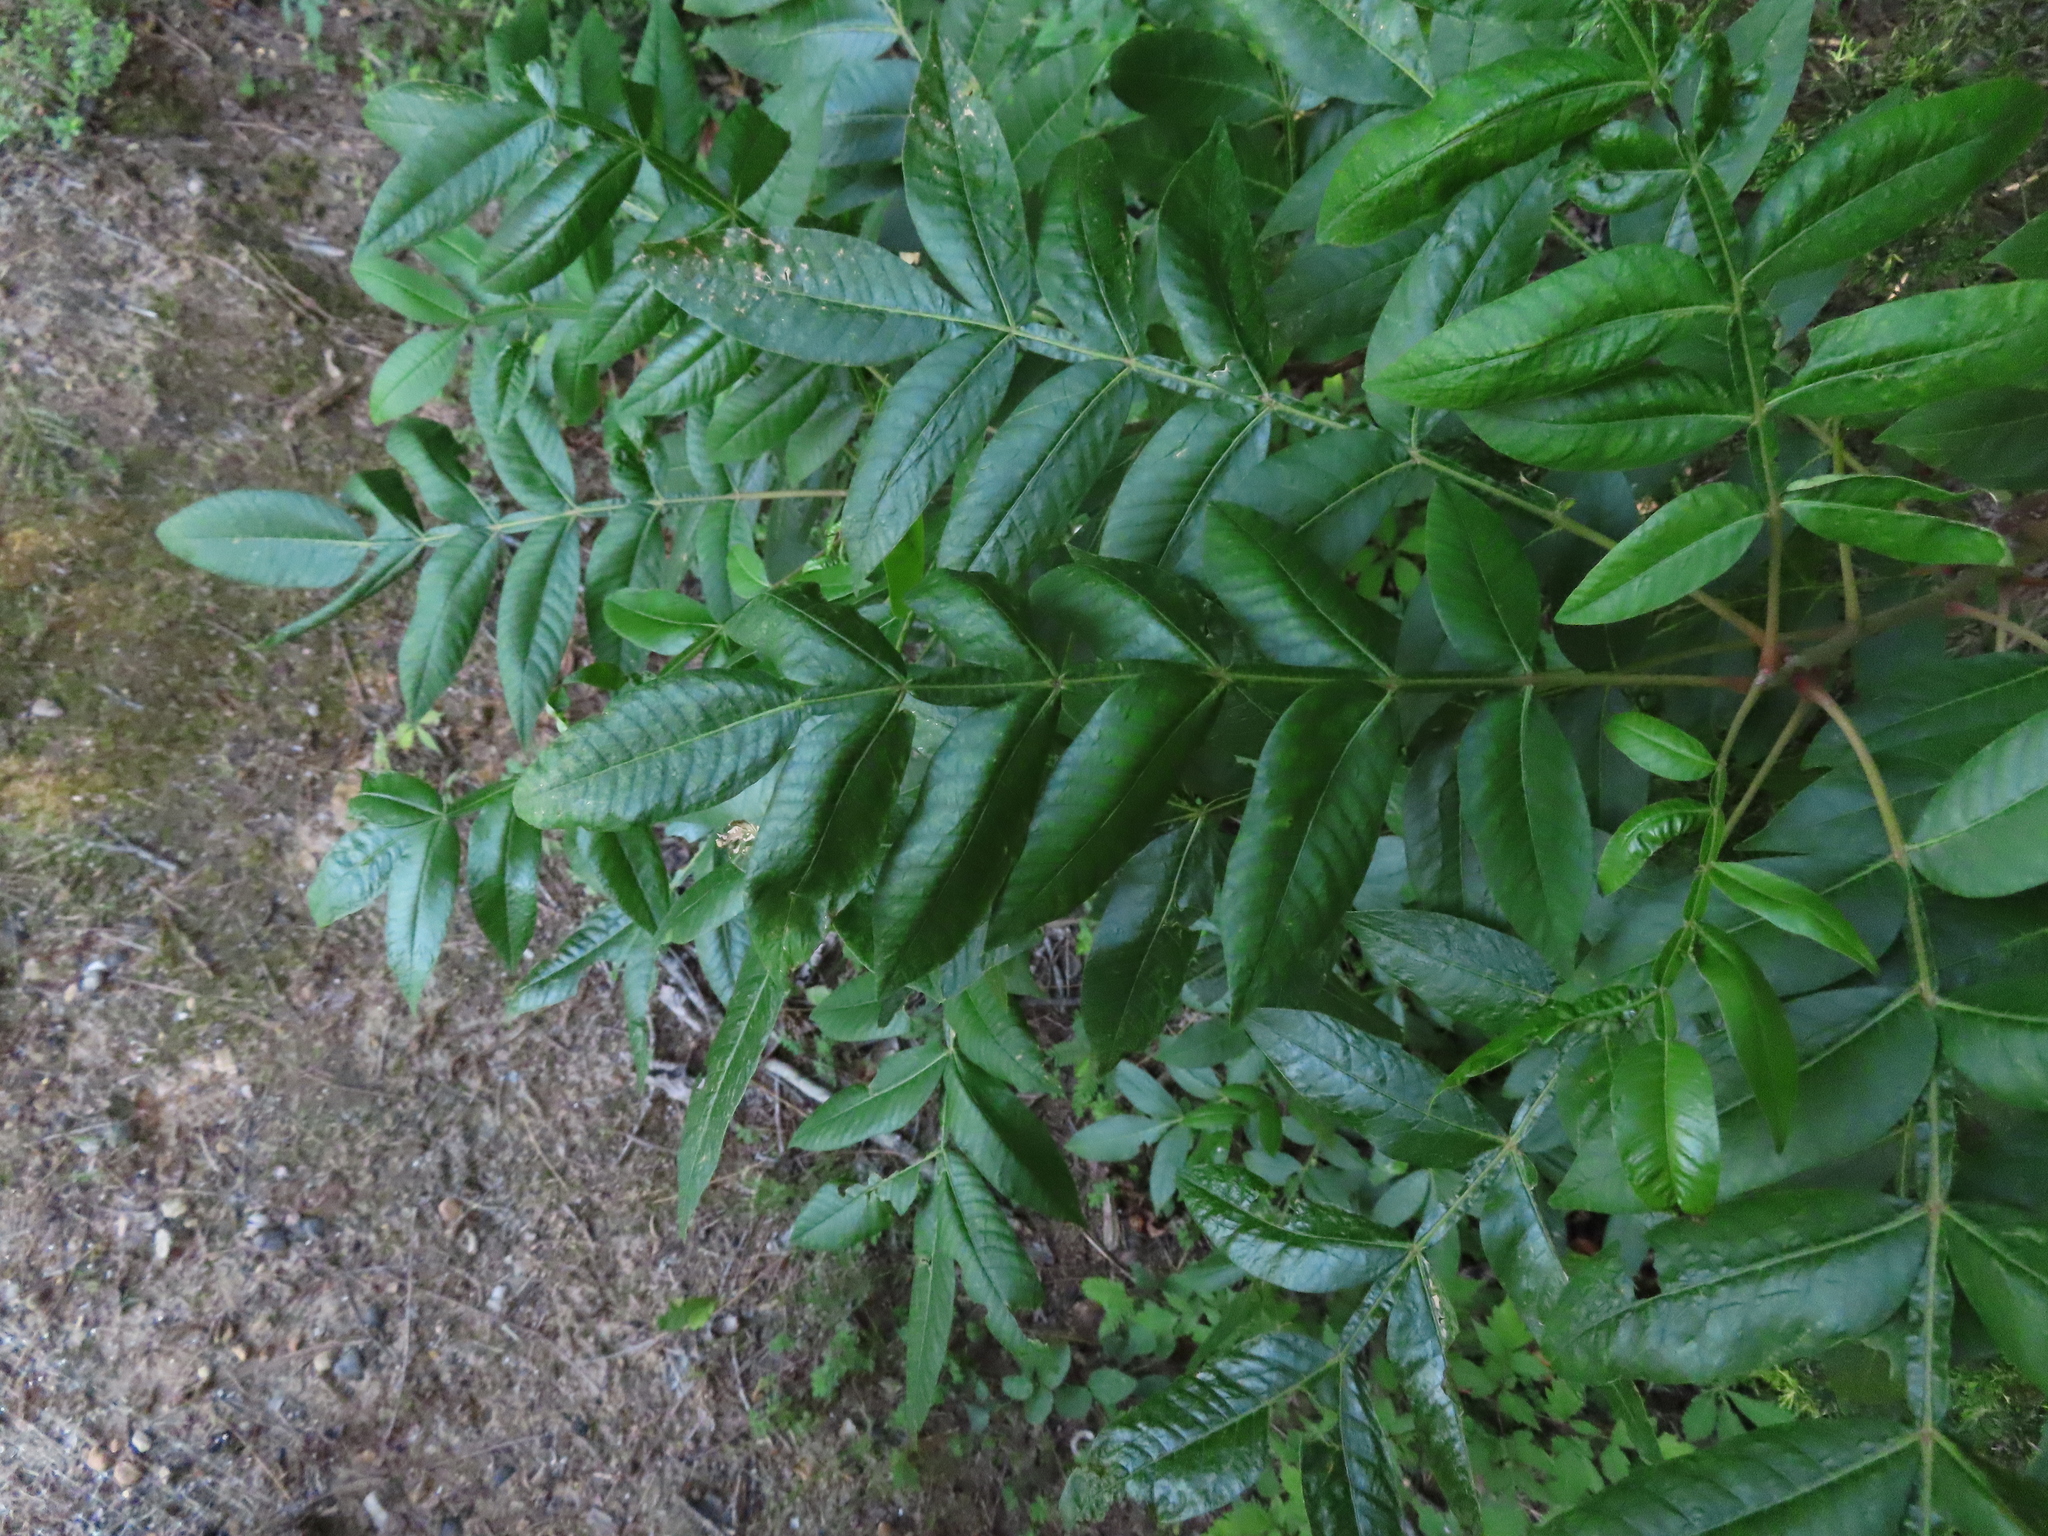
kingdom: Plantae
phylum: Tracheophyta
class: Magnoliopsida
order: Sapindales
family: Anacardiaceae
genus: Rhus
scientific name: Rhus copallina
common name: Shining sumac
